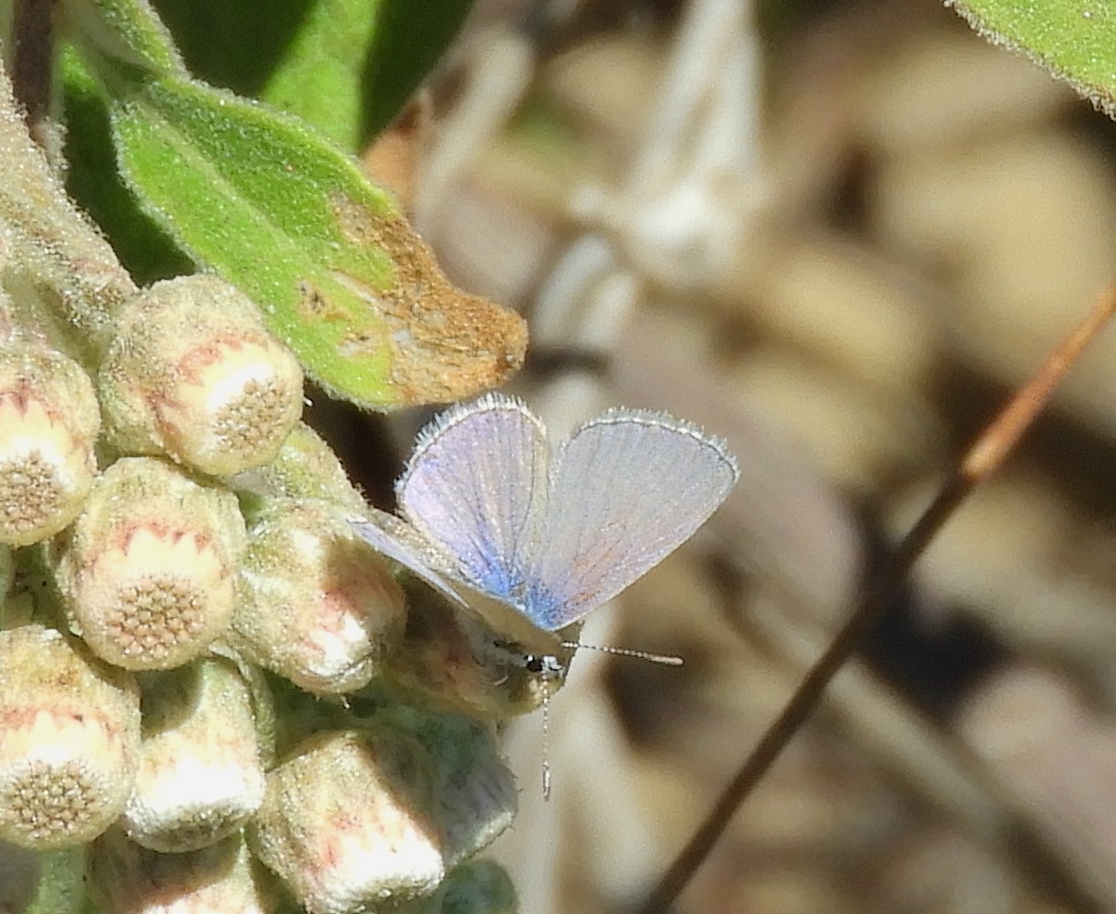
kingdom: Animalia
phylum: Arthropoda
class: Insecta
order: Lepidoptera
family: Lycaenidae
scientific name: Lycaenidae
